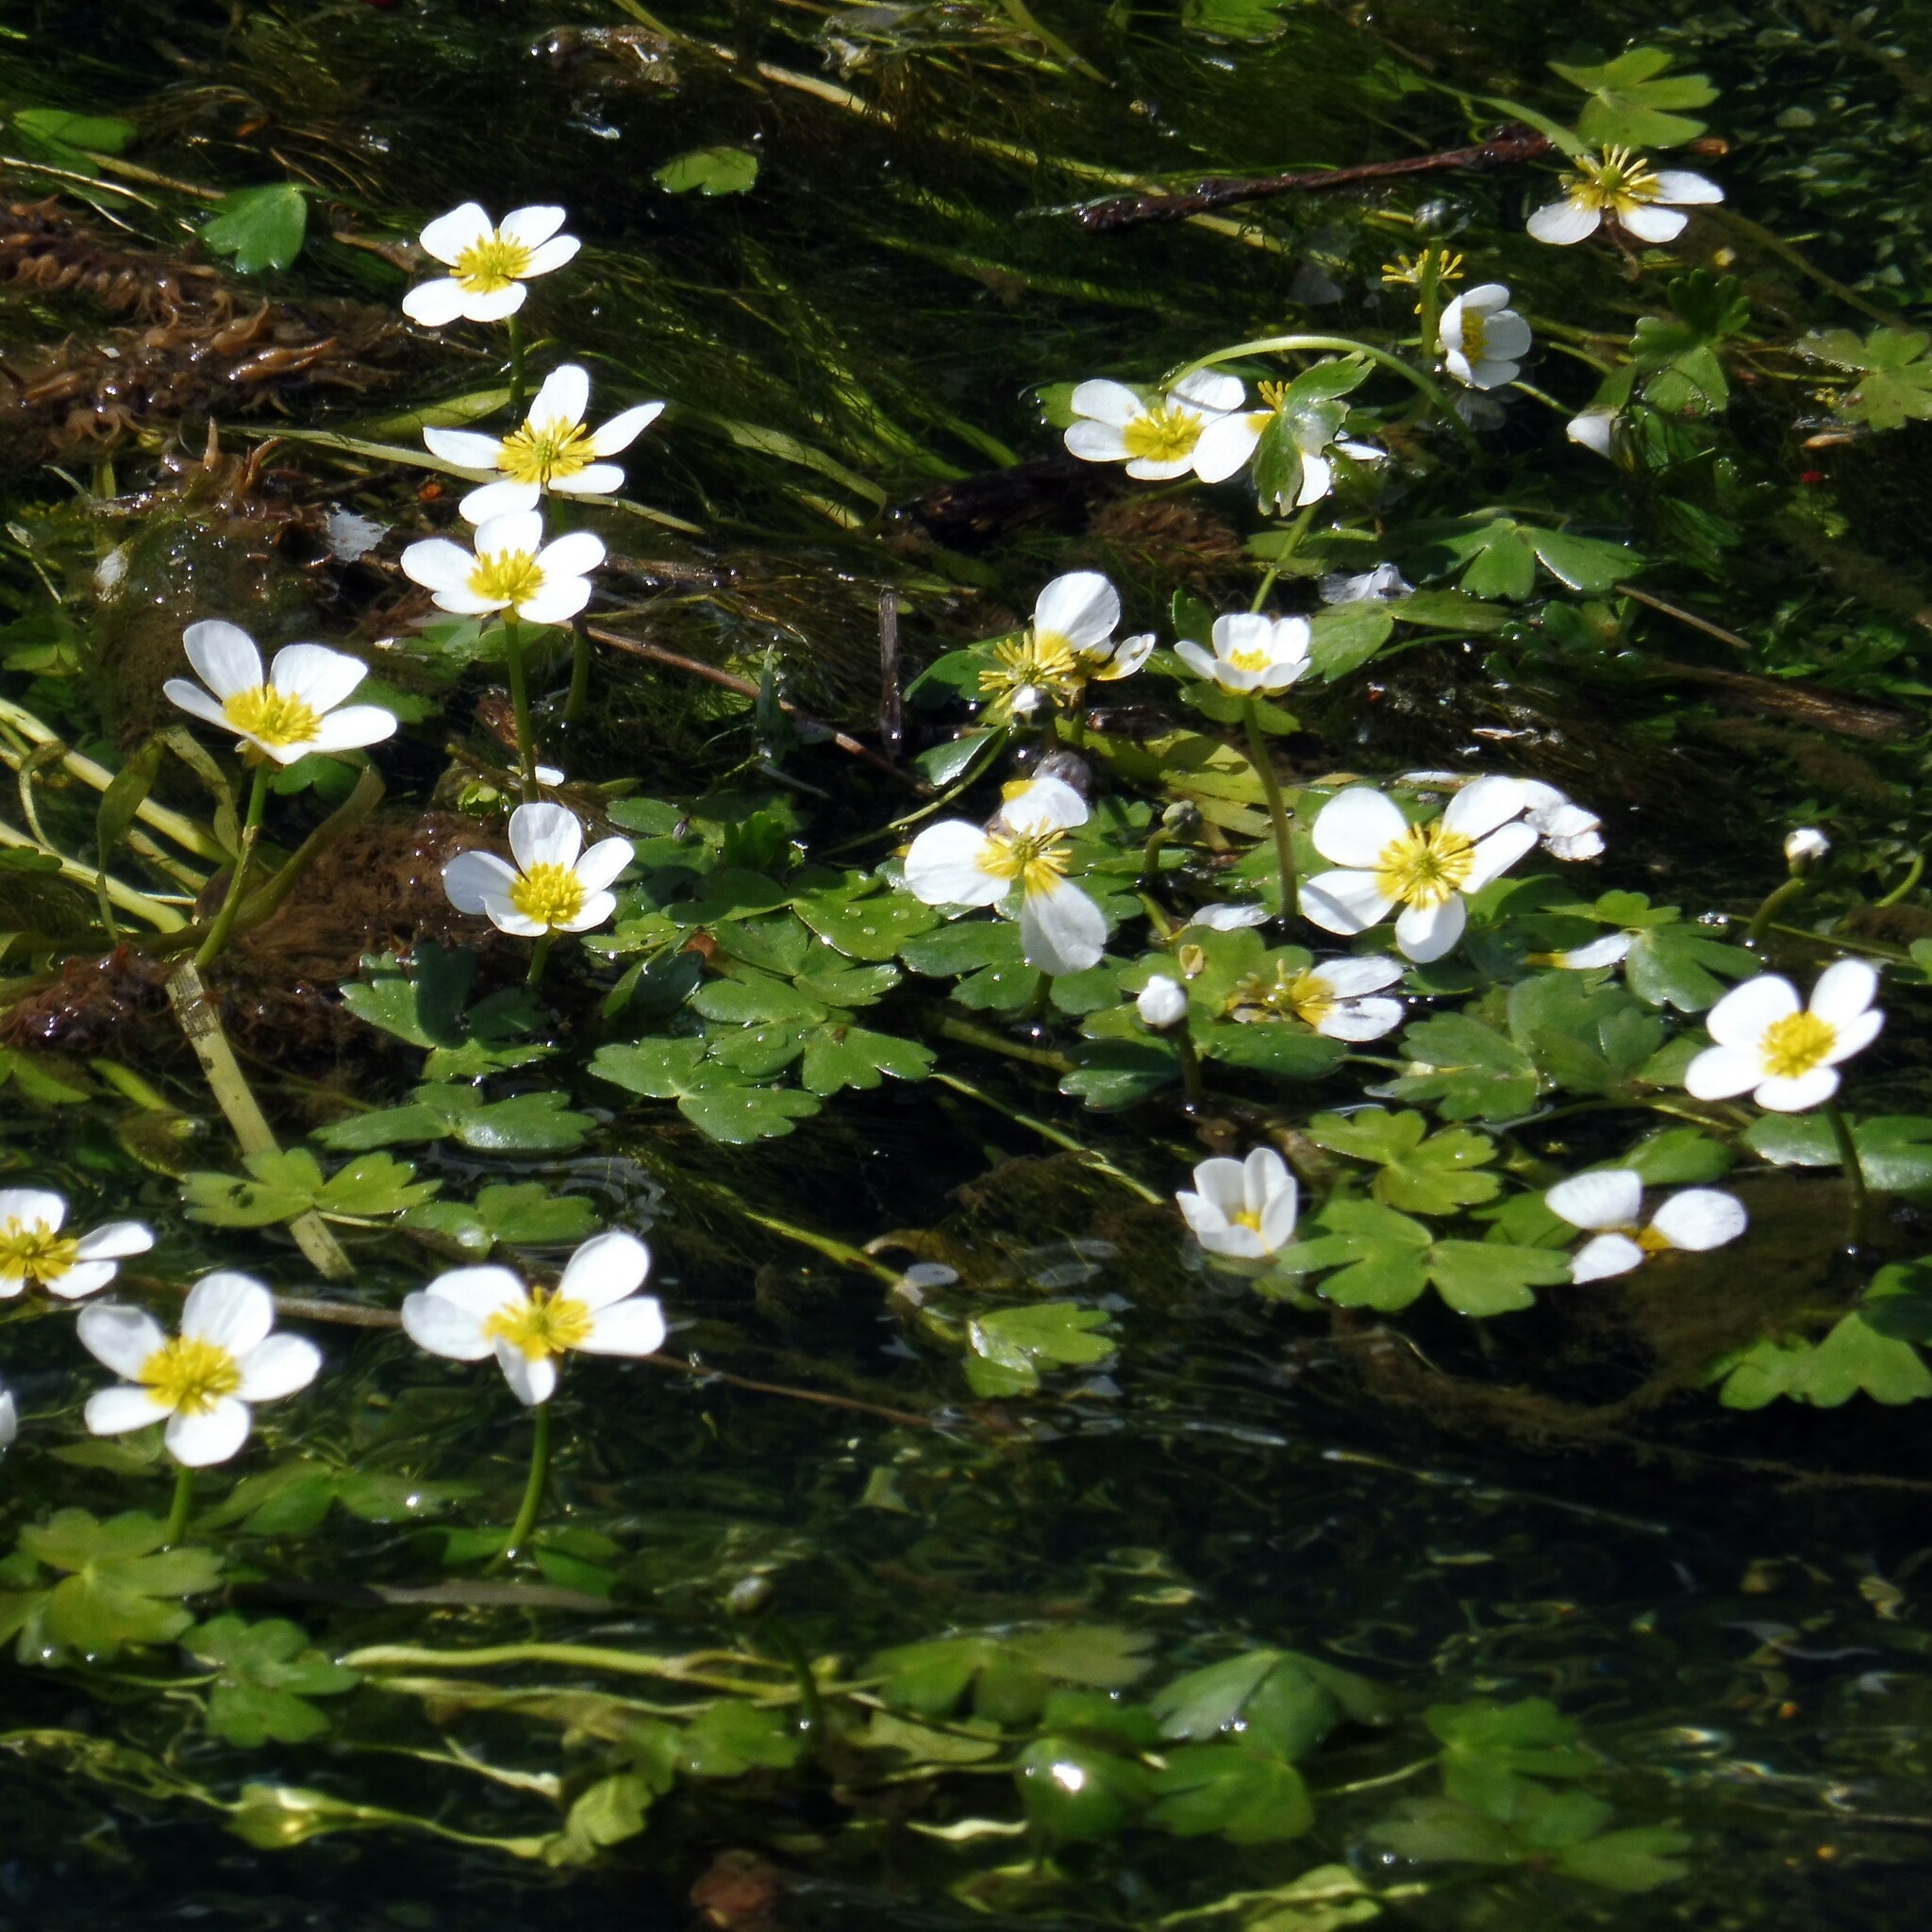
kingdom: Plantae
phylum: Tracheophyta
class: Magnoliopsida
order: Ranunculales
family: Ranunculaceae
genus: Ranunculus
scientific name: Ranunculus aquatilis
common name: Common water-crowfoot
